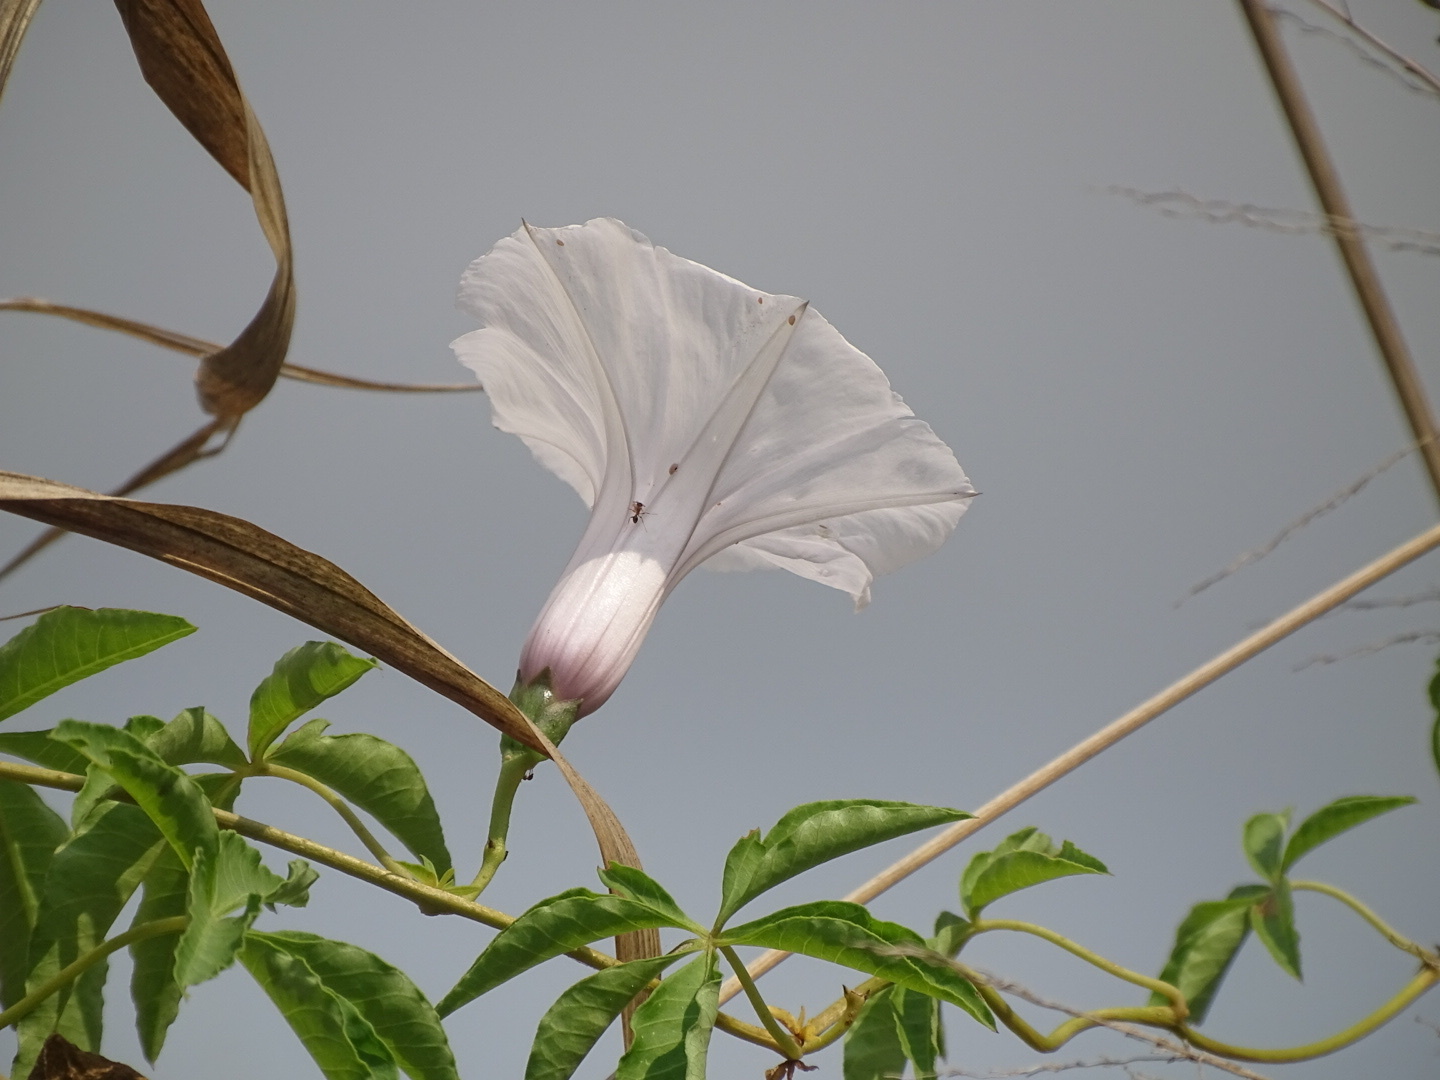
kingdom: Plantae
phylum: Tracheophyta
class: Magnoliopsida
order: Solanales
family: Convolvulaceae
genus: Ipomoea
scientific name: Ipomoea cairica
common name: Mile a minute vine
